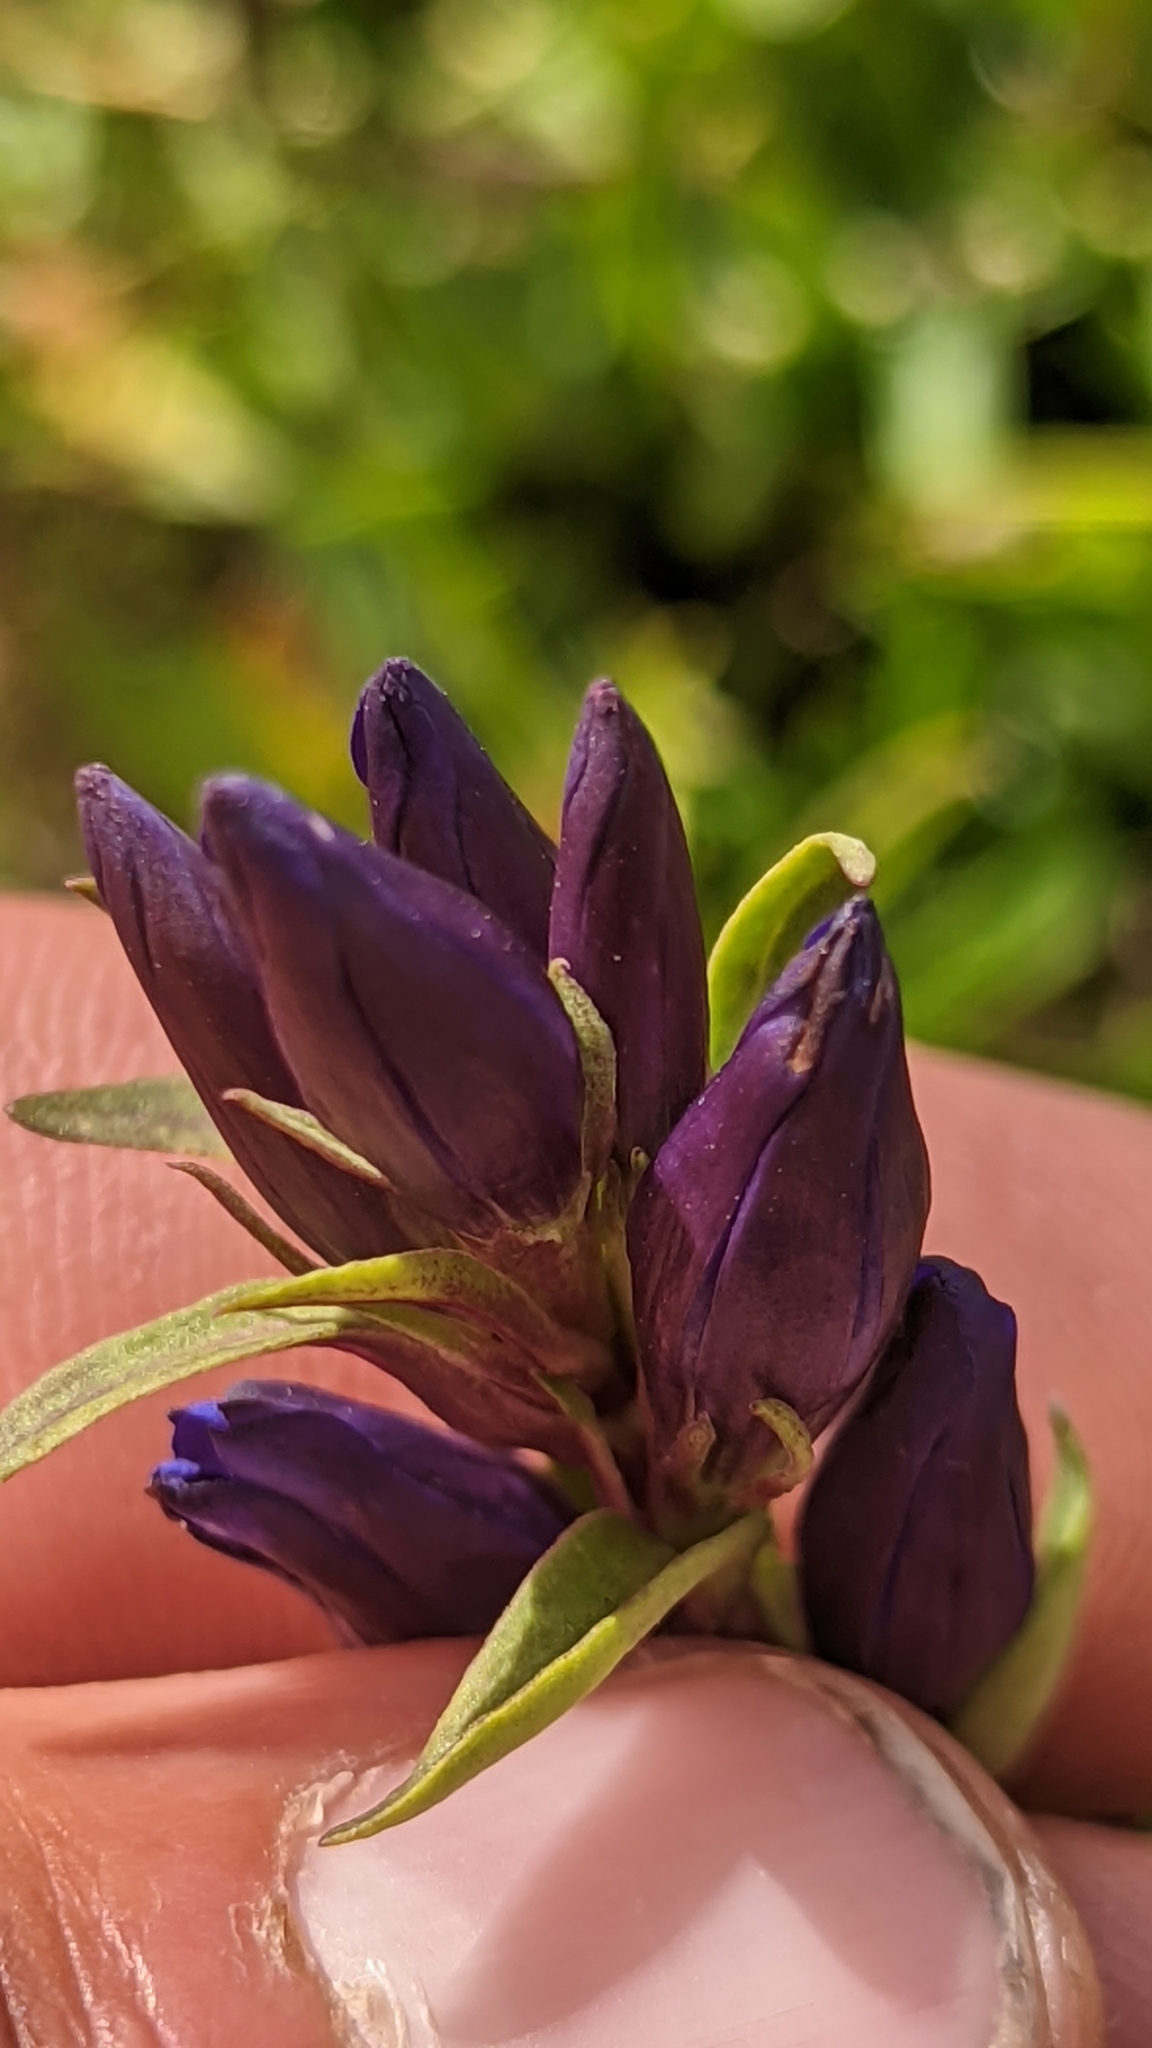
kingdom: Plantae
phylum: Tracheophyta
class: Magnoliopsida
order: Gentianales
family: Gentianaceae
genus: Gentiana
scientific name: Gentiana affinis
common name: Rocky mountain gentian
